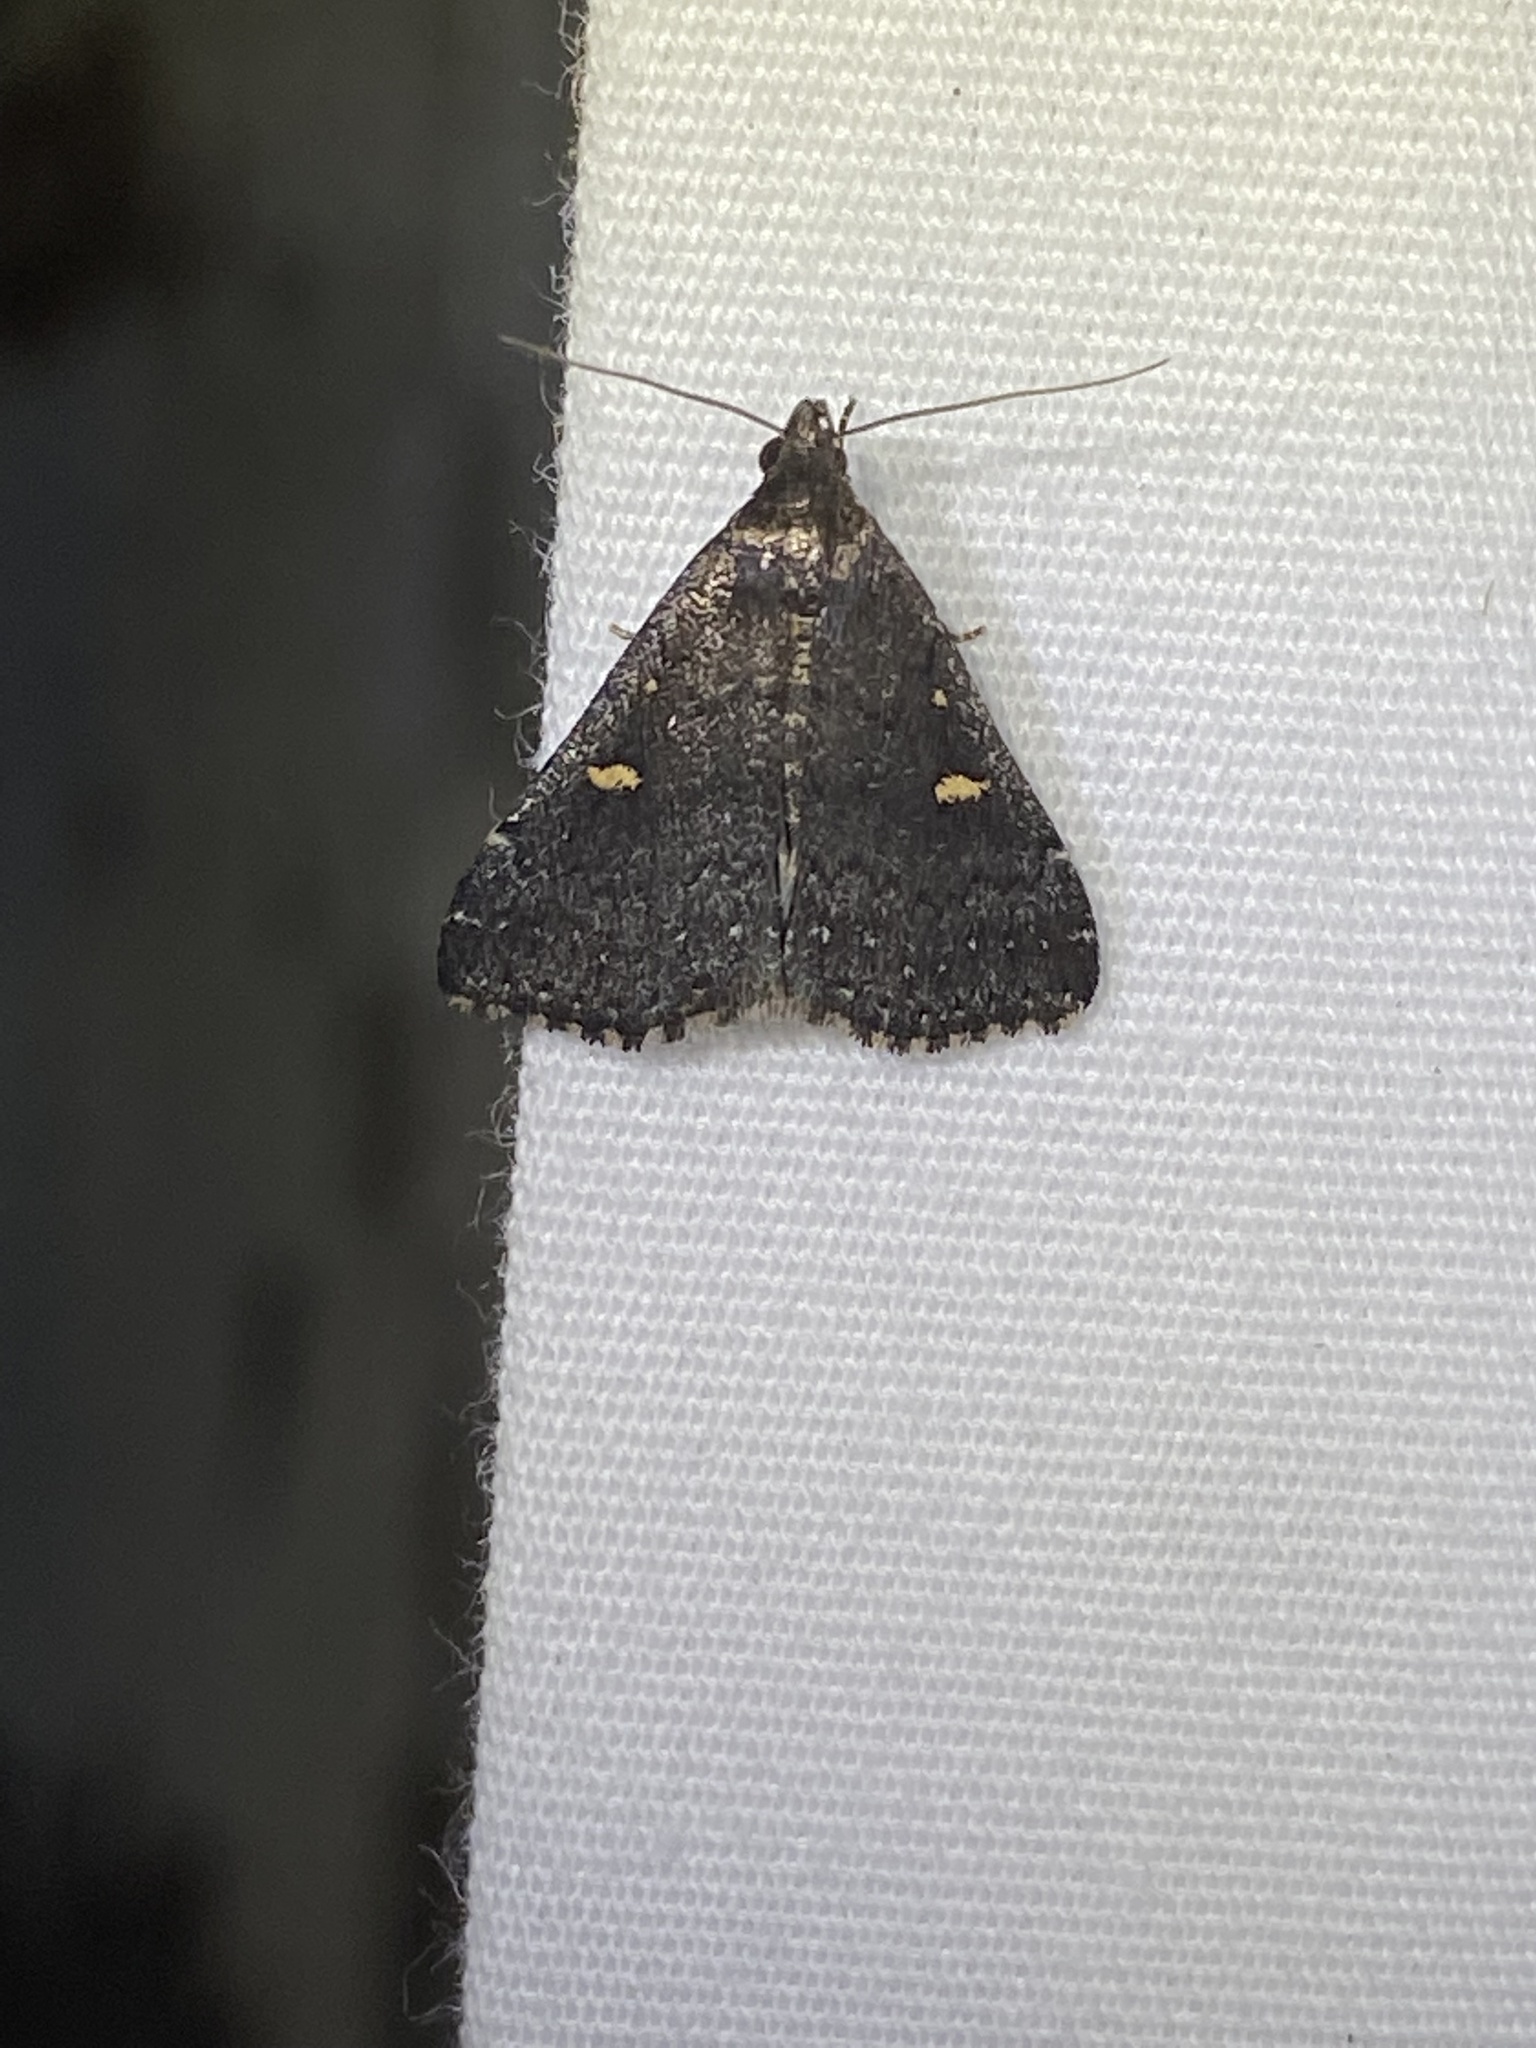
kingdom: Animalia
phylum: Arthropoda
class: Insecta
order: Lepidoptera
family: Erebidae
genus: Tetanolita
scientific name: Tetanolita mynesalis
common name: Smoky tetanolita moth
